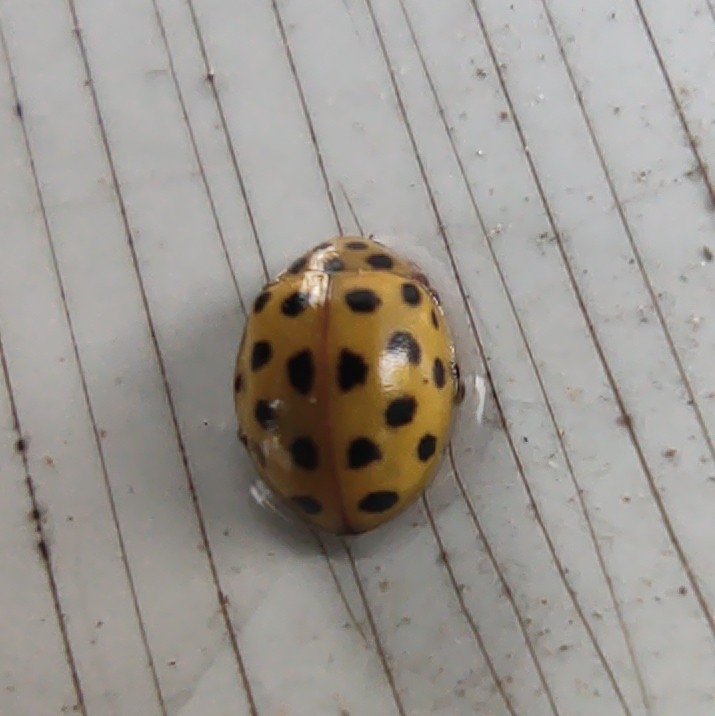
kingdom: Animalia
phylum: Arthropoda
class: Insecta
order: Coleoptera
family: Coccinellidae
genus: Psyllobora
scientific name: Psyllobora vigintiduopunctata
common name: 22-spot ladybird
